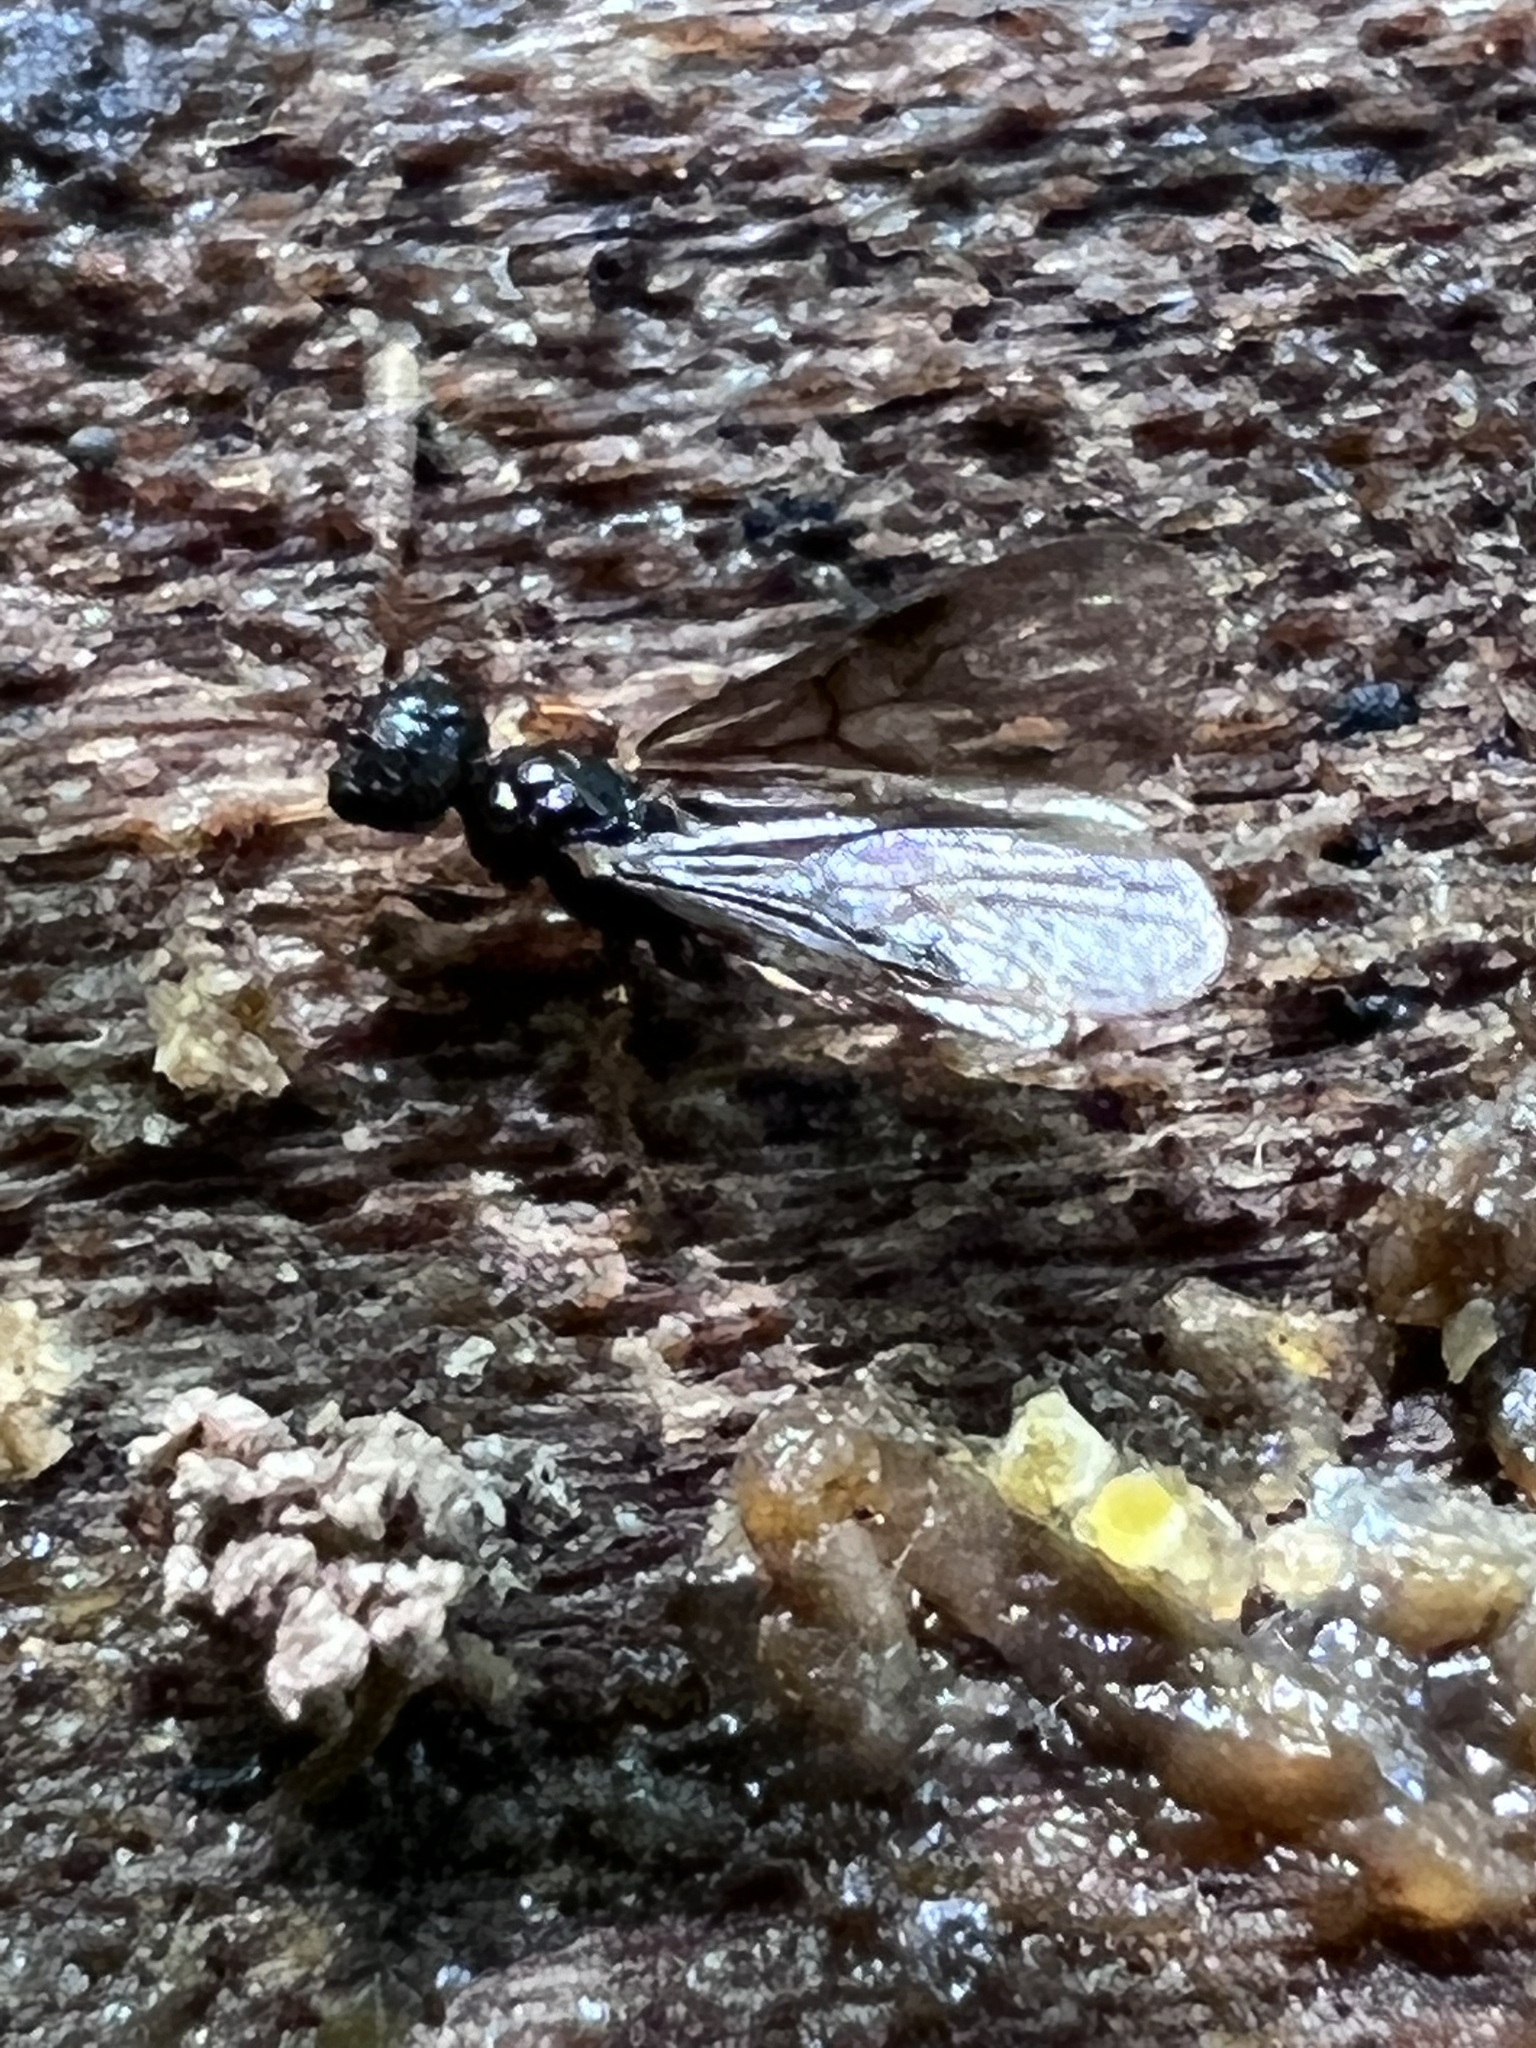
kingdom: Animalia
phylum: Arthropoda
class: Insecta
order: Hymenoptera
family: Formicidae
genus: Myrmecina
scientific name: Myrmecina americana
